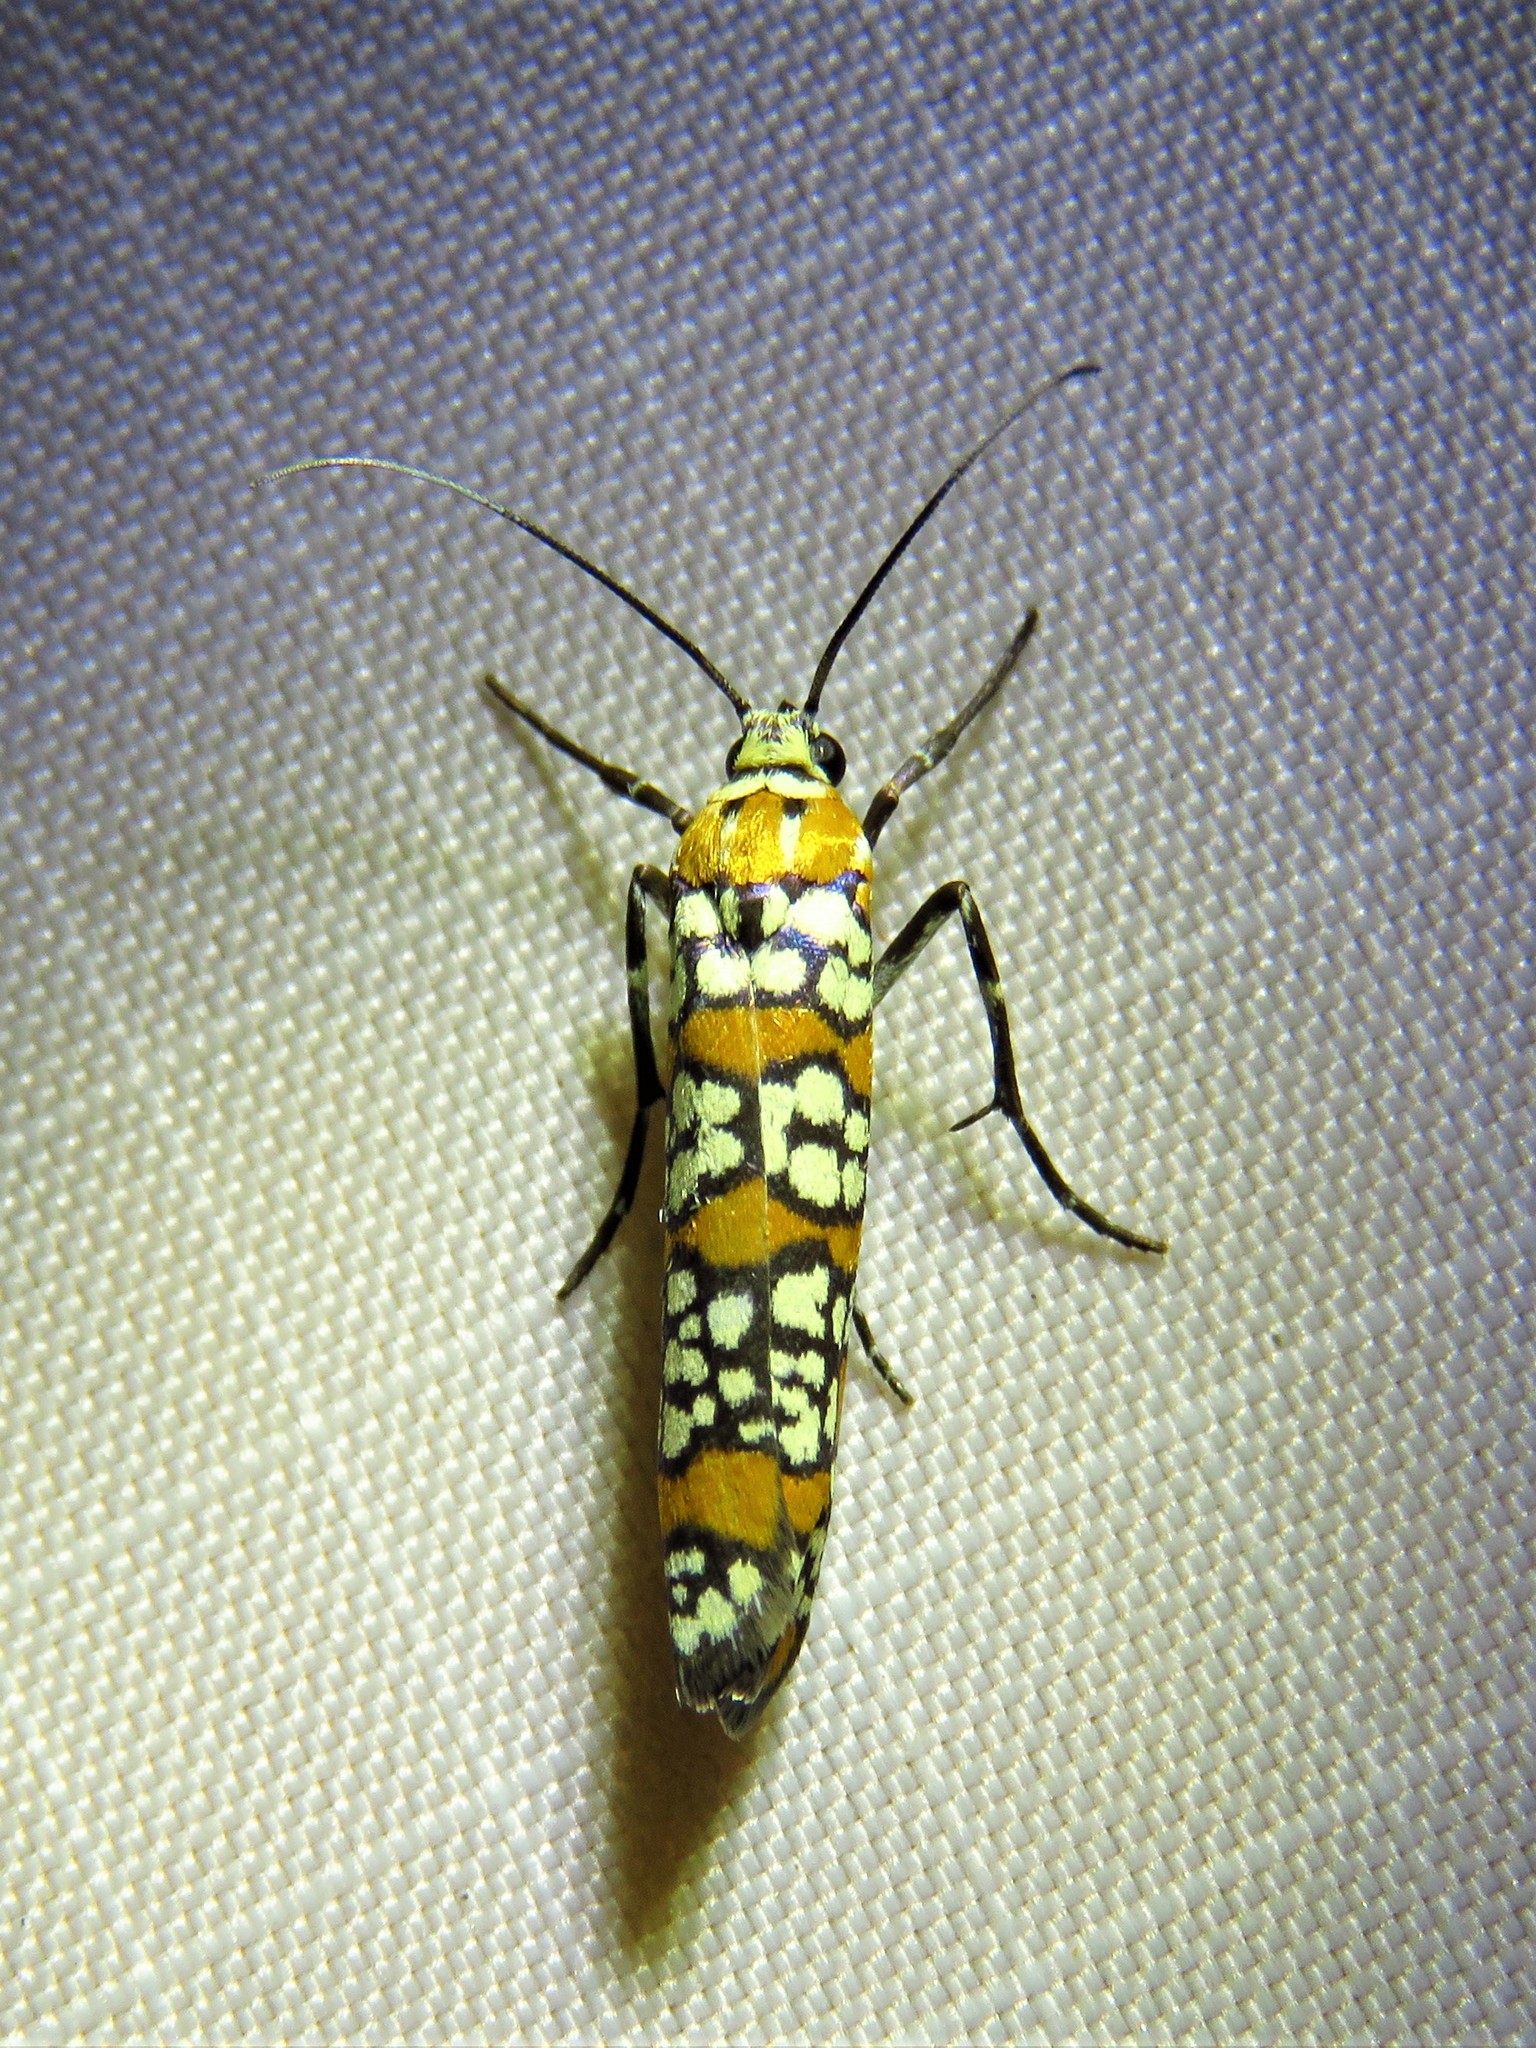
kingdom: Animalia
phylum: Arthropoda
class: Insecta
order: Lepidoptera
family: Attevidae
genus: Atteva
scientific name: Atteva punctella
